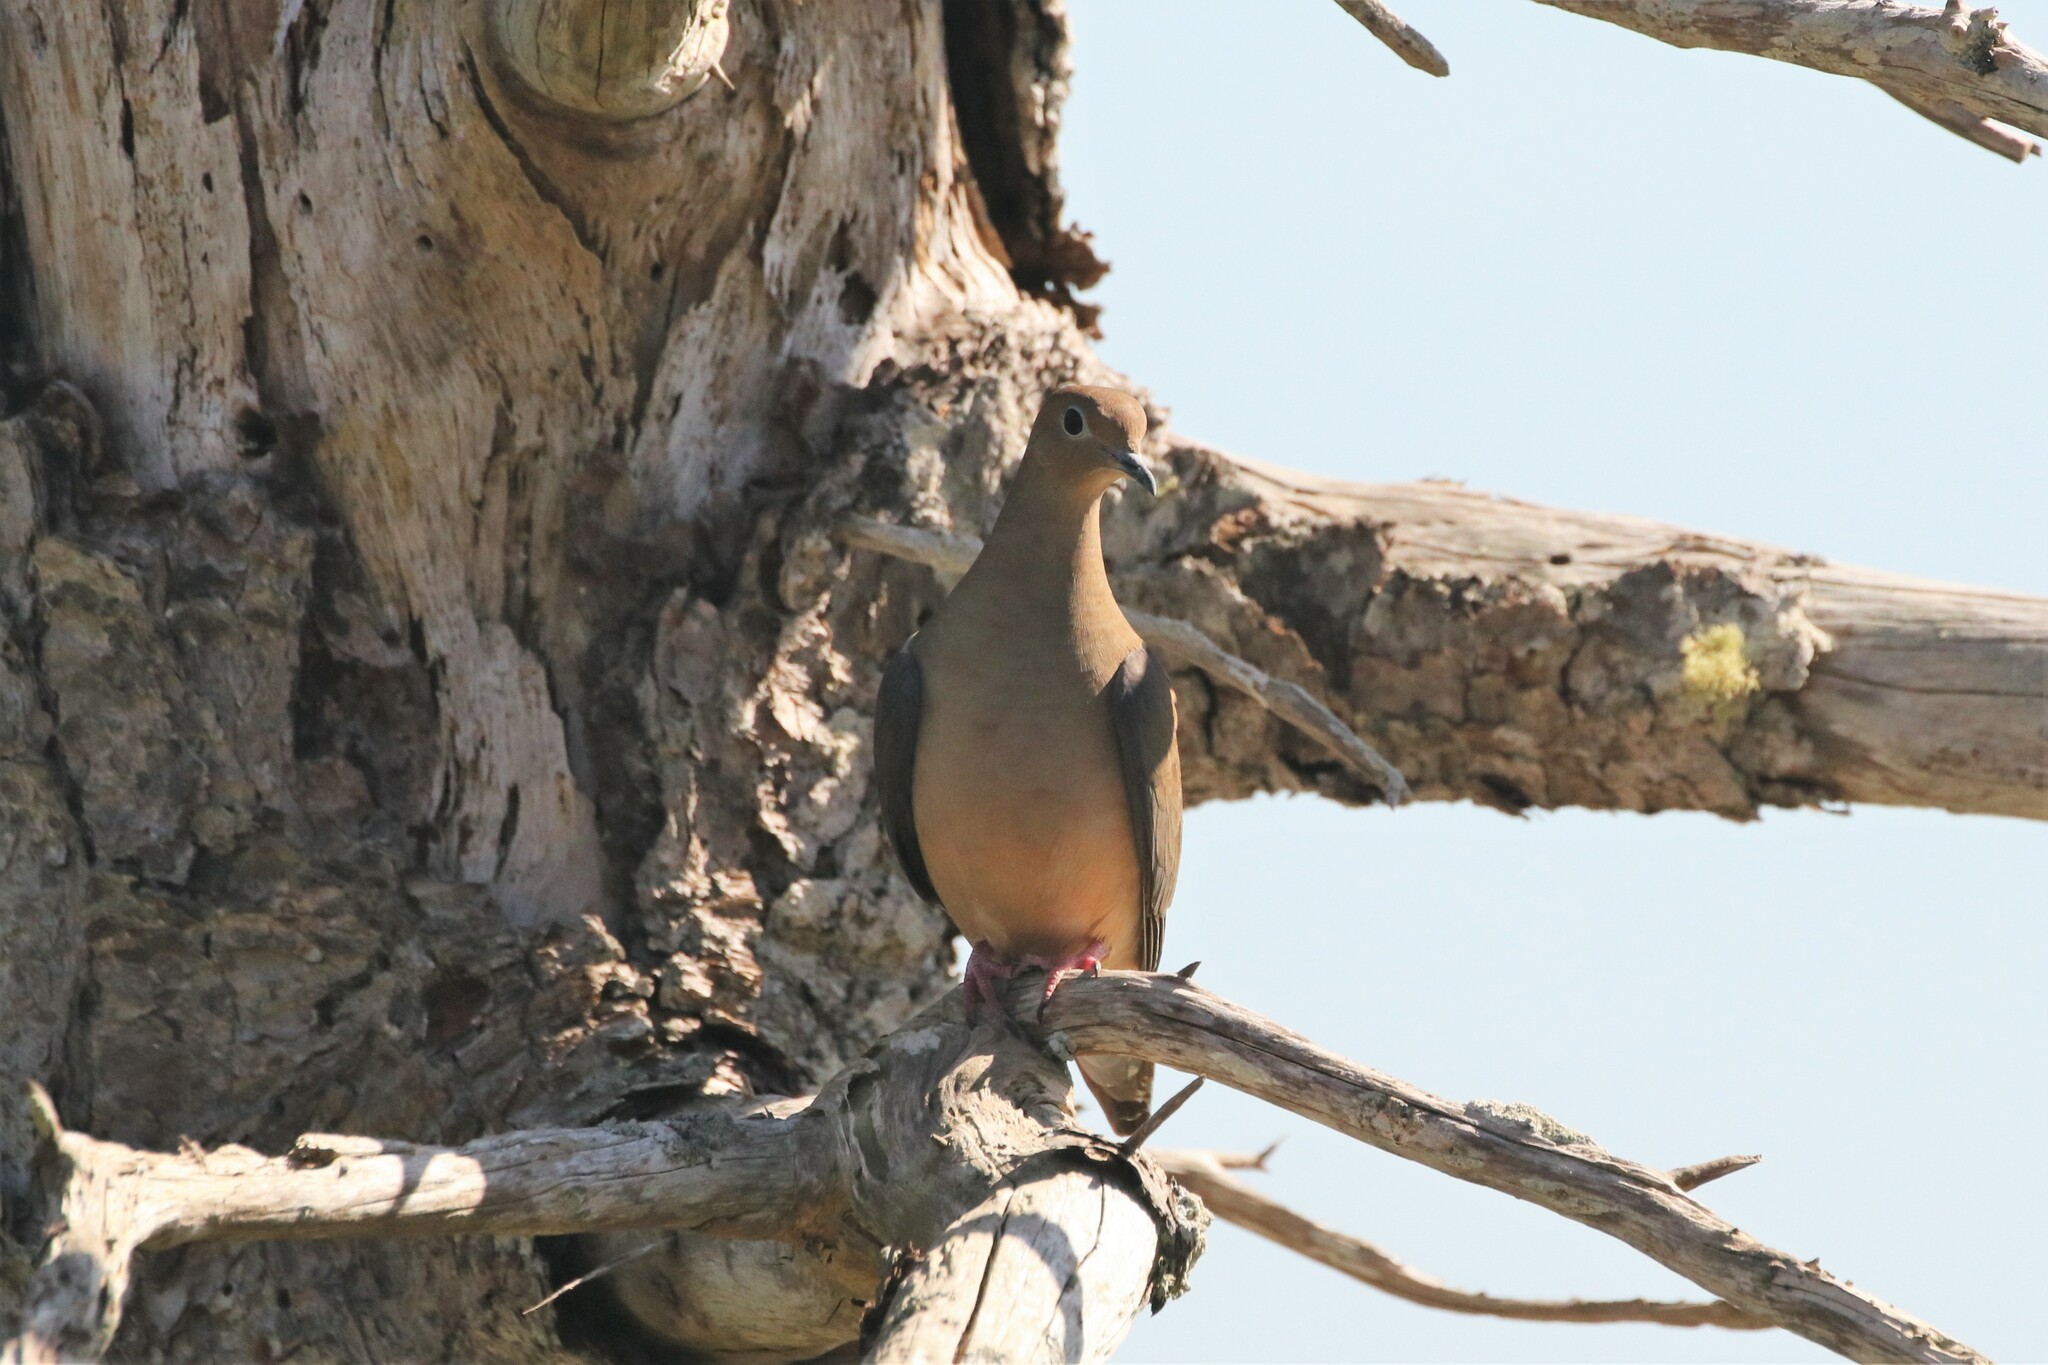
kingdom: Animalia
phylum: Chordata
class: Aves
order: Columbiformes
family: Columbidae
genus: Zenaida
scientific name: Zenaida macroura
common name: Mourning dove
